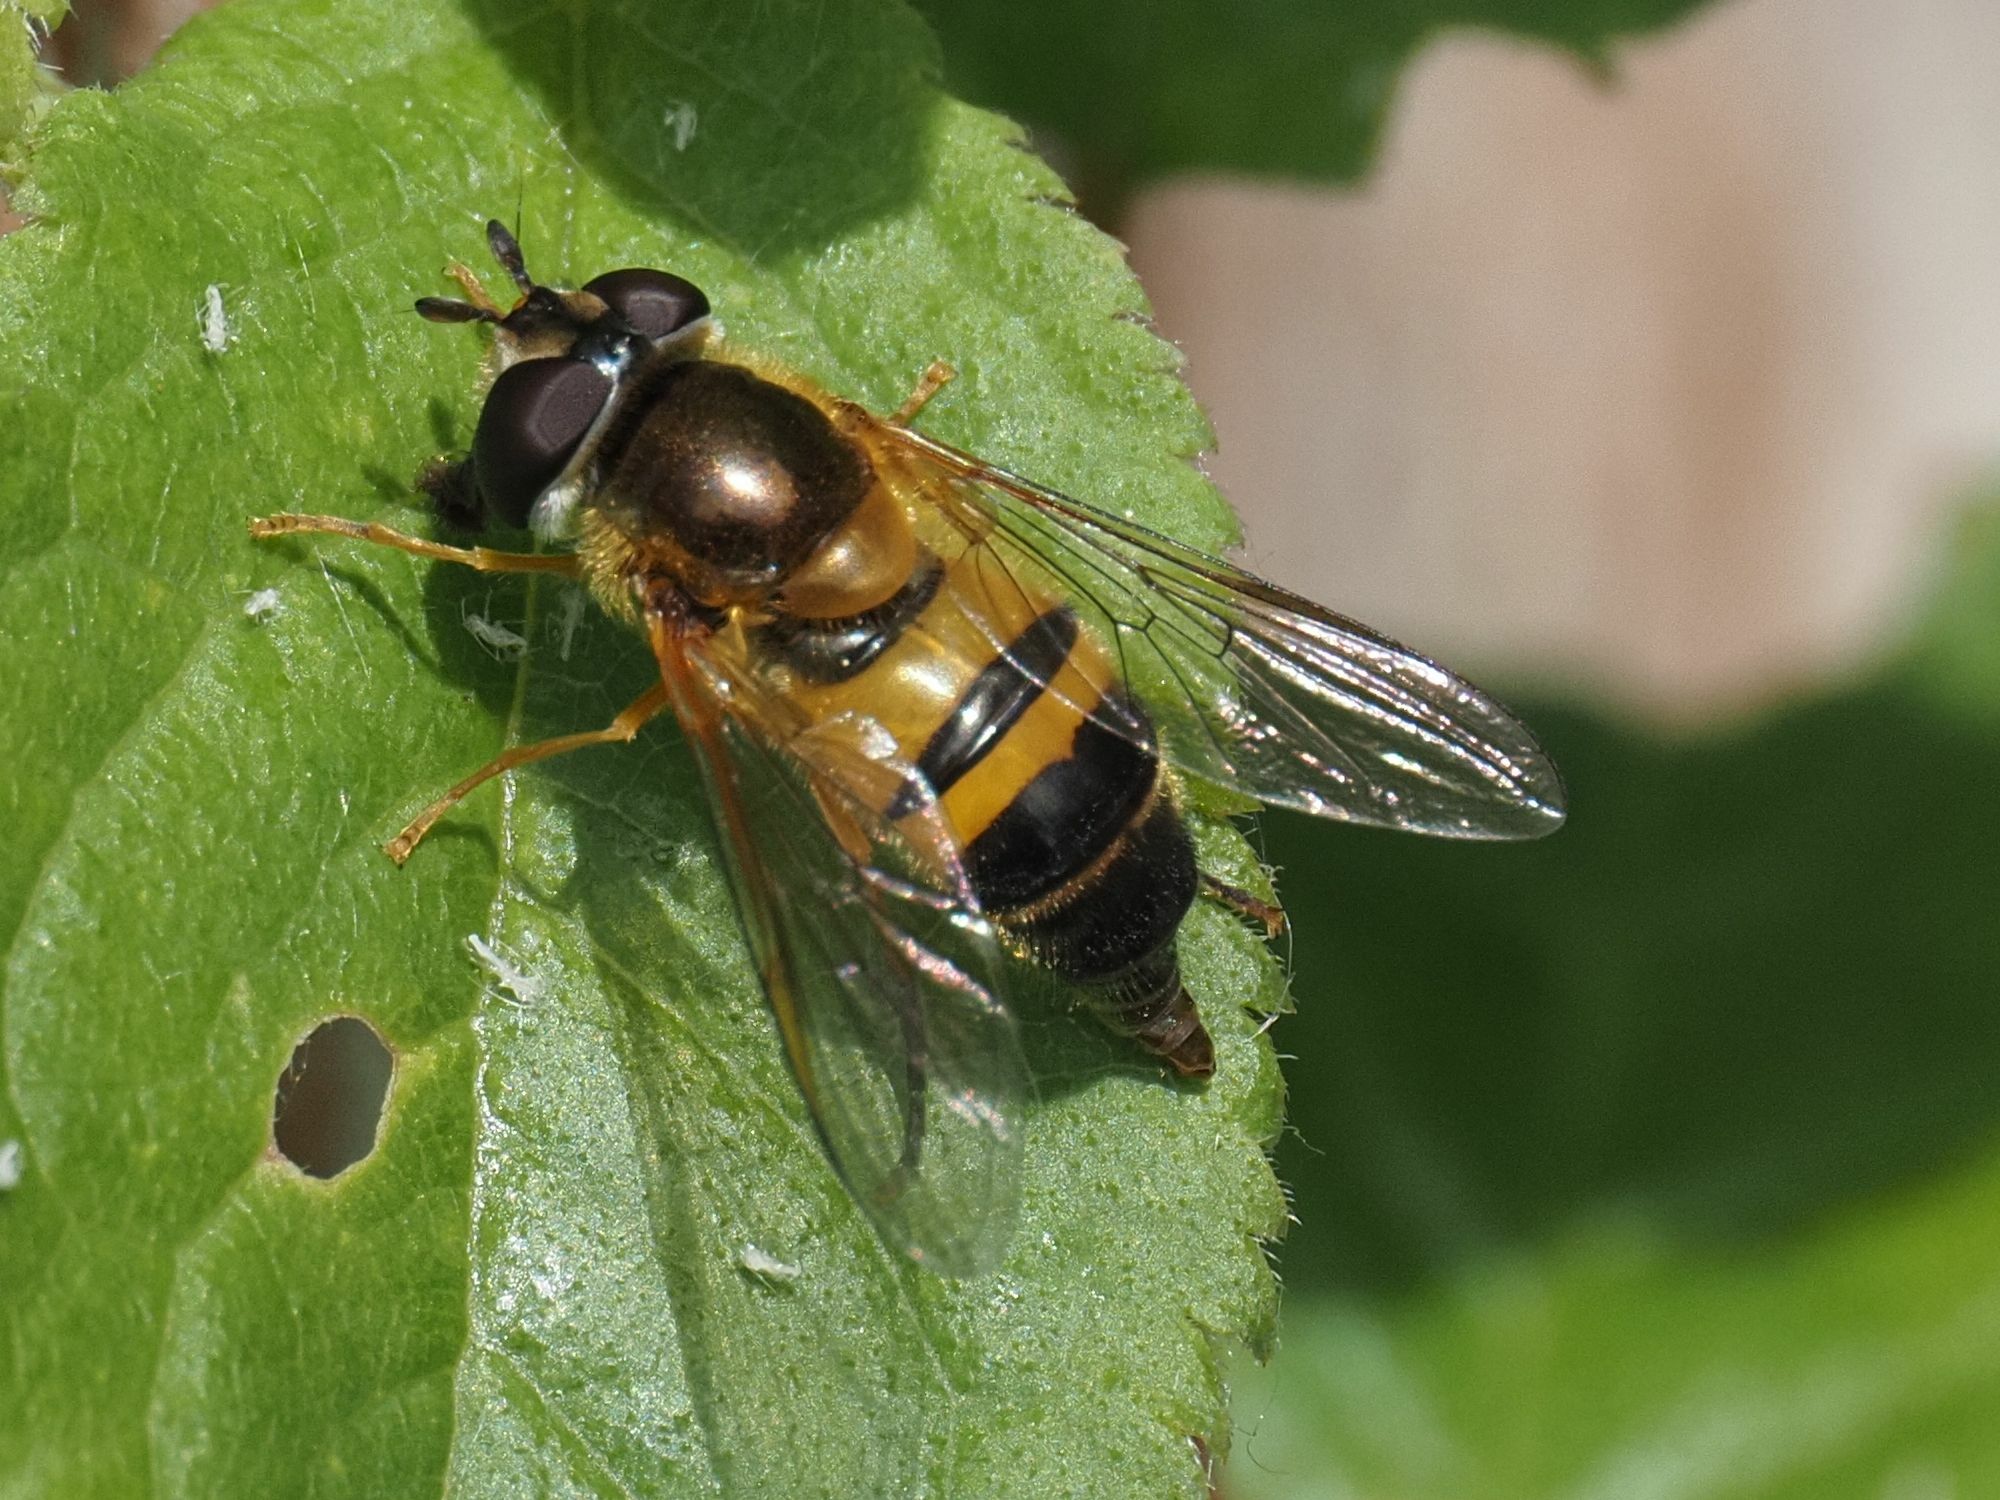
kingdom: Animalia
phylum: Arthropoda
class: Insecta
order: Diptera
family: Syrphidae
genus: Epistrophe
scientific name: Epistrophe eligans
